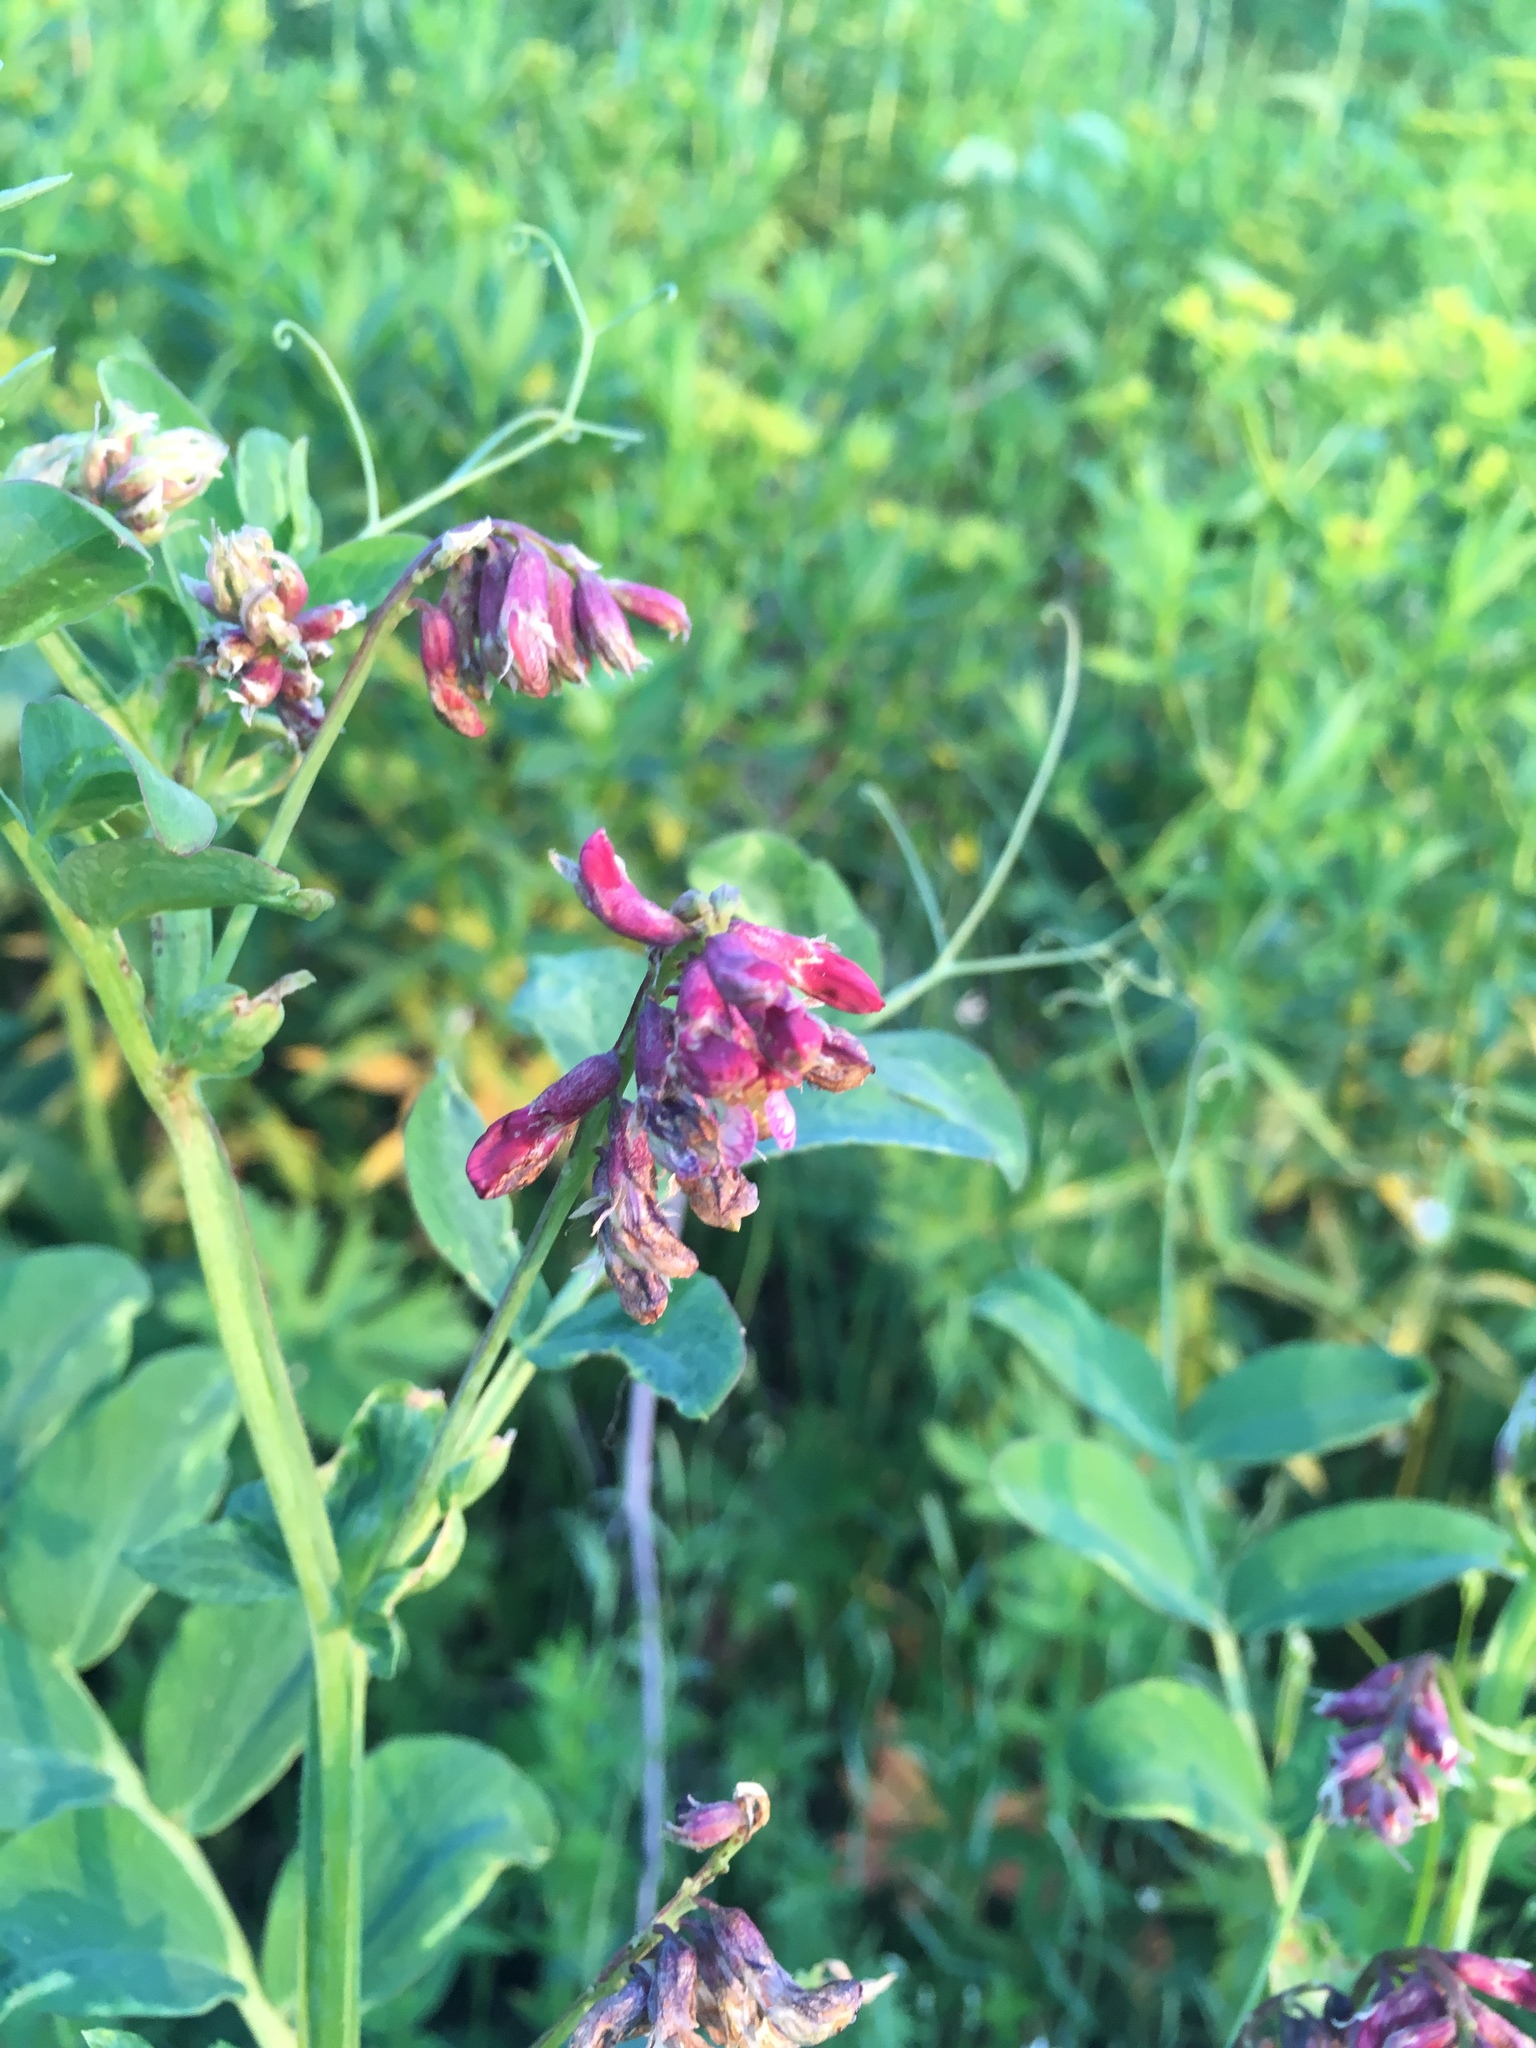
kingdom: Plantae
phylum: Tracheophyta
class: Magnoliopsida
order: Fabales
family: Fabaceae
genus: Lathyrus
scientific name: Lathyrus pisiformis
